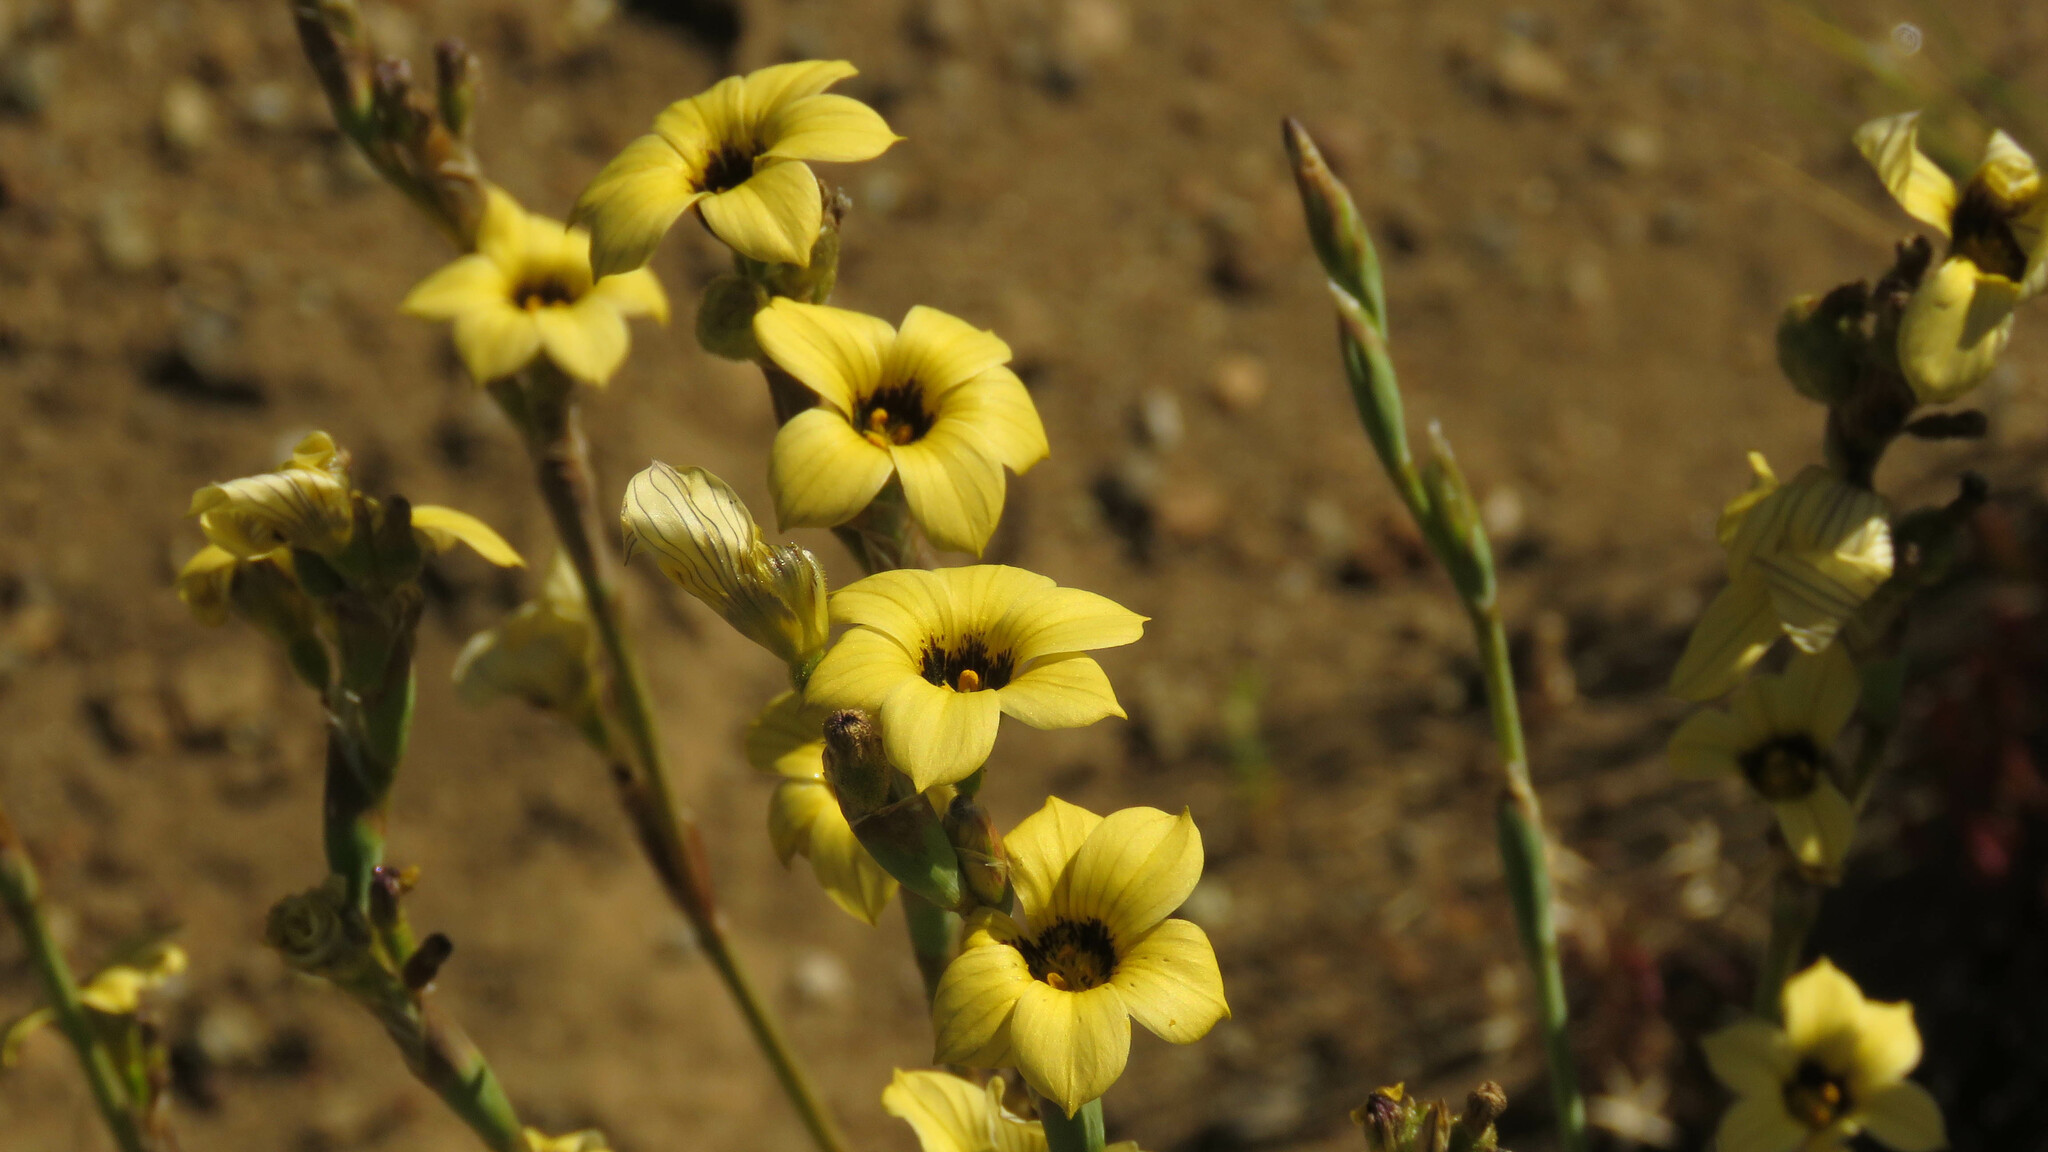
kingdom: Plantae
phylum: Tracheophyta
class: Liliopsida
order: Asparagales
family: Iridaceae
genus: Sisyrinchium
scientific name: Sisyrinchium arenarium
